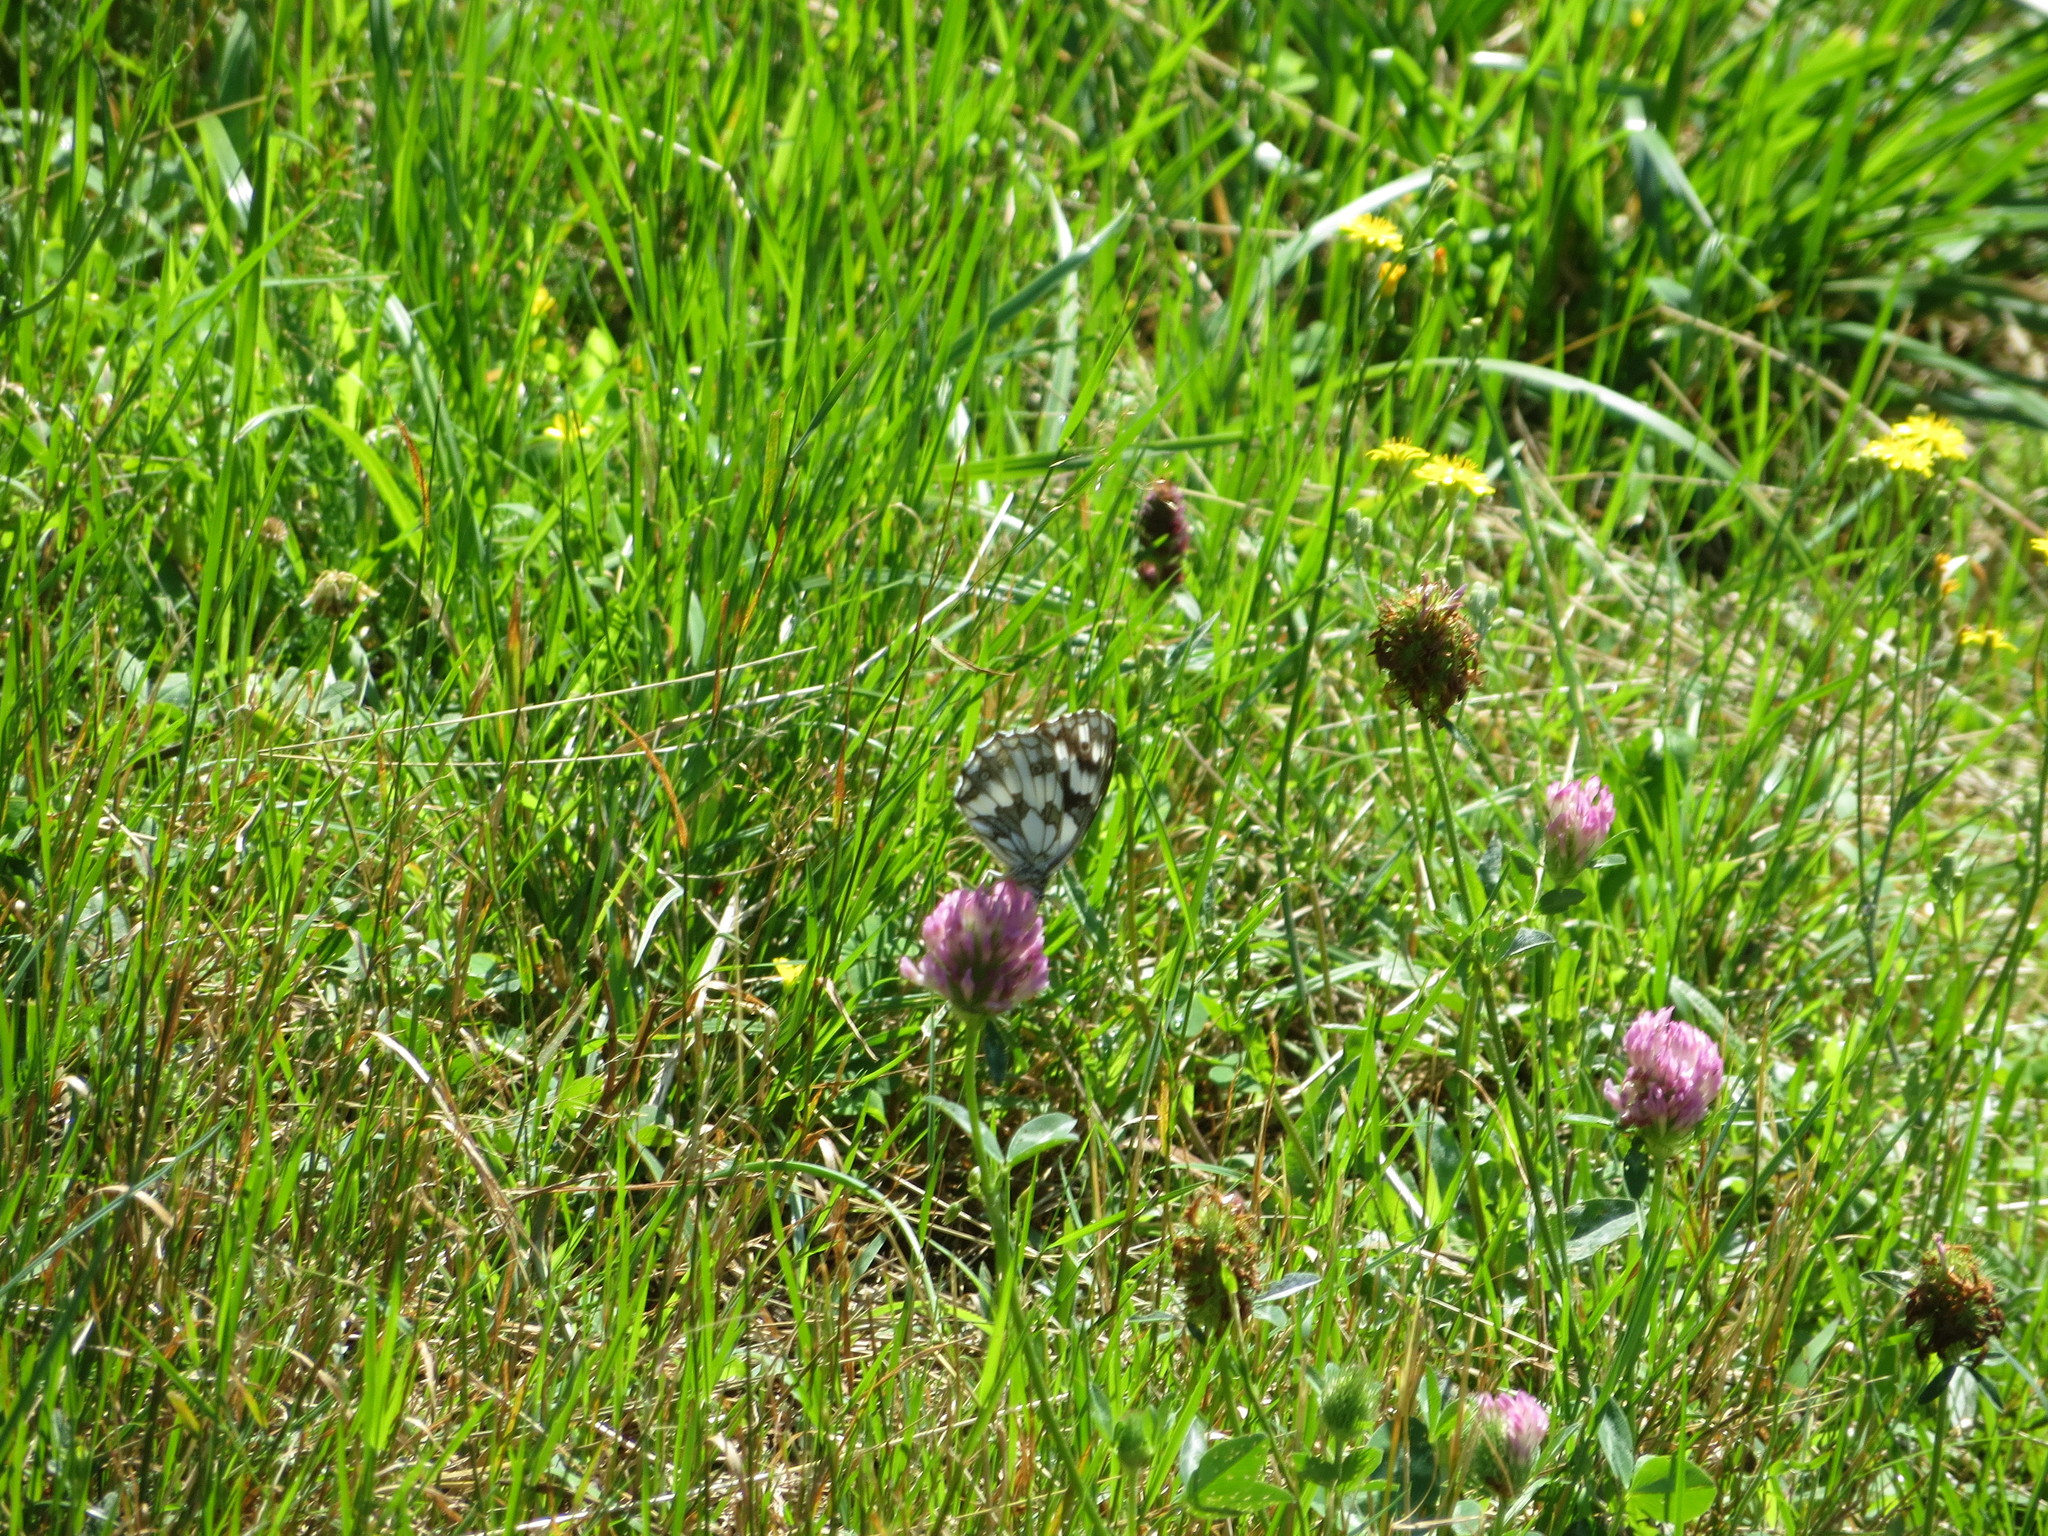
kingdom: Animalia
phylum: Arthropoda
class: Insecta
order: Lepidoptera
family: Nymphalidae
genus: Melanargia
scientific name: Melanargia galathea
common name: Marbled white
